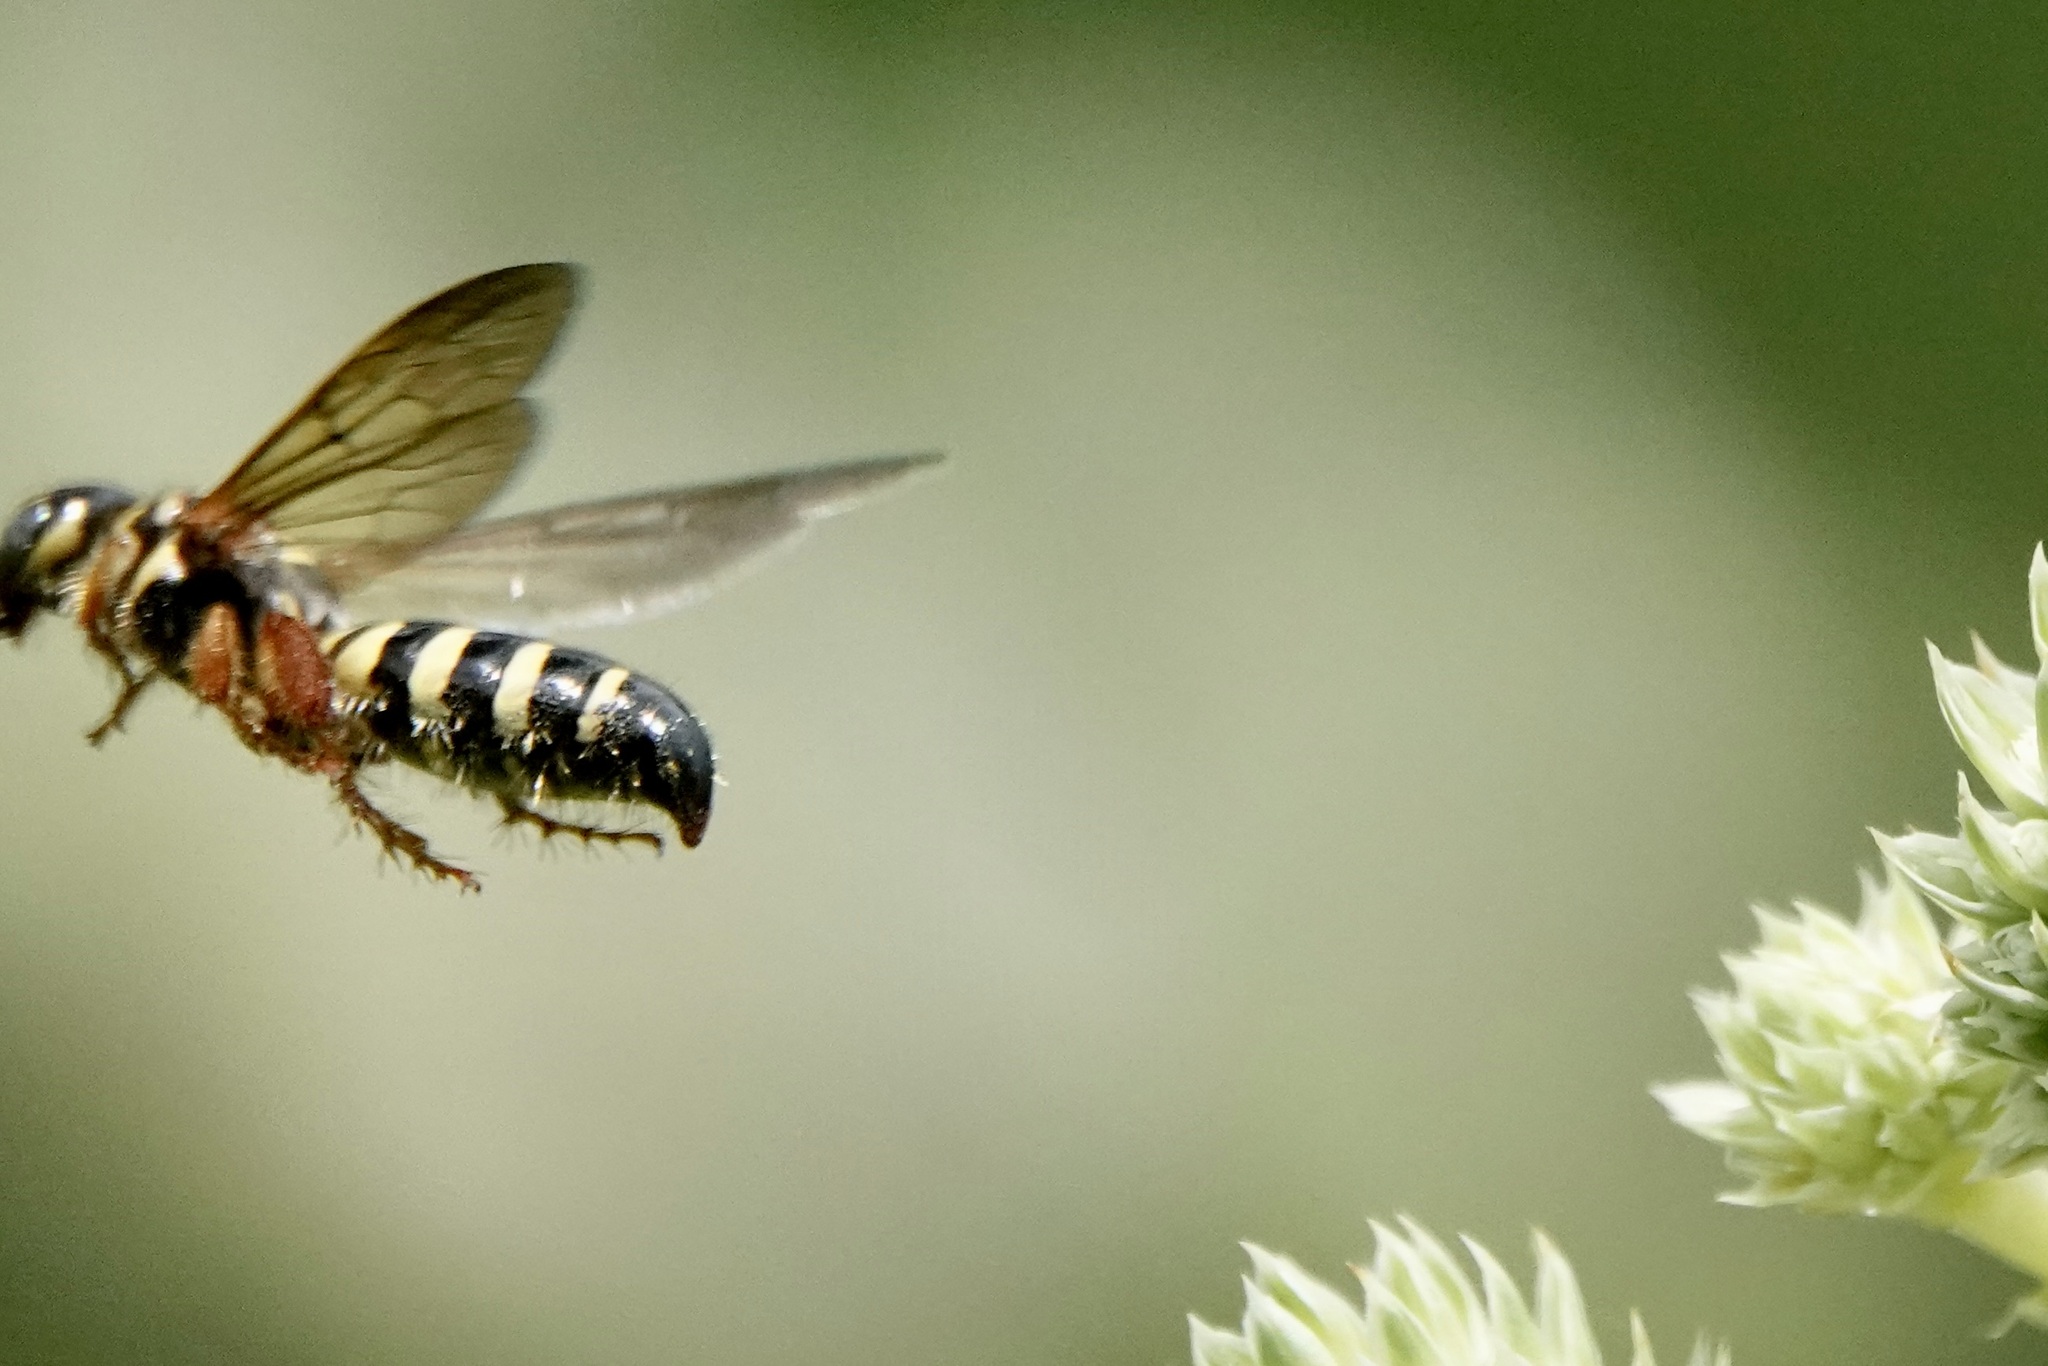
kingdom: Animalia
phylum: Arthropoda
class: Insecta
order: Hymenoptera
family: Tiphiidae
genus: Myzinum
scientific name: Myzinum quinquecinctum
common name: Five-banded thynnid wasp
